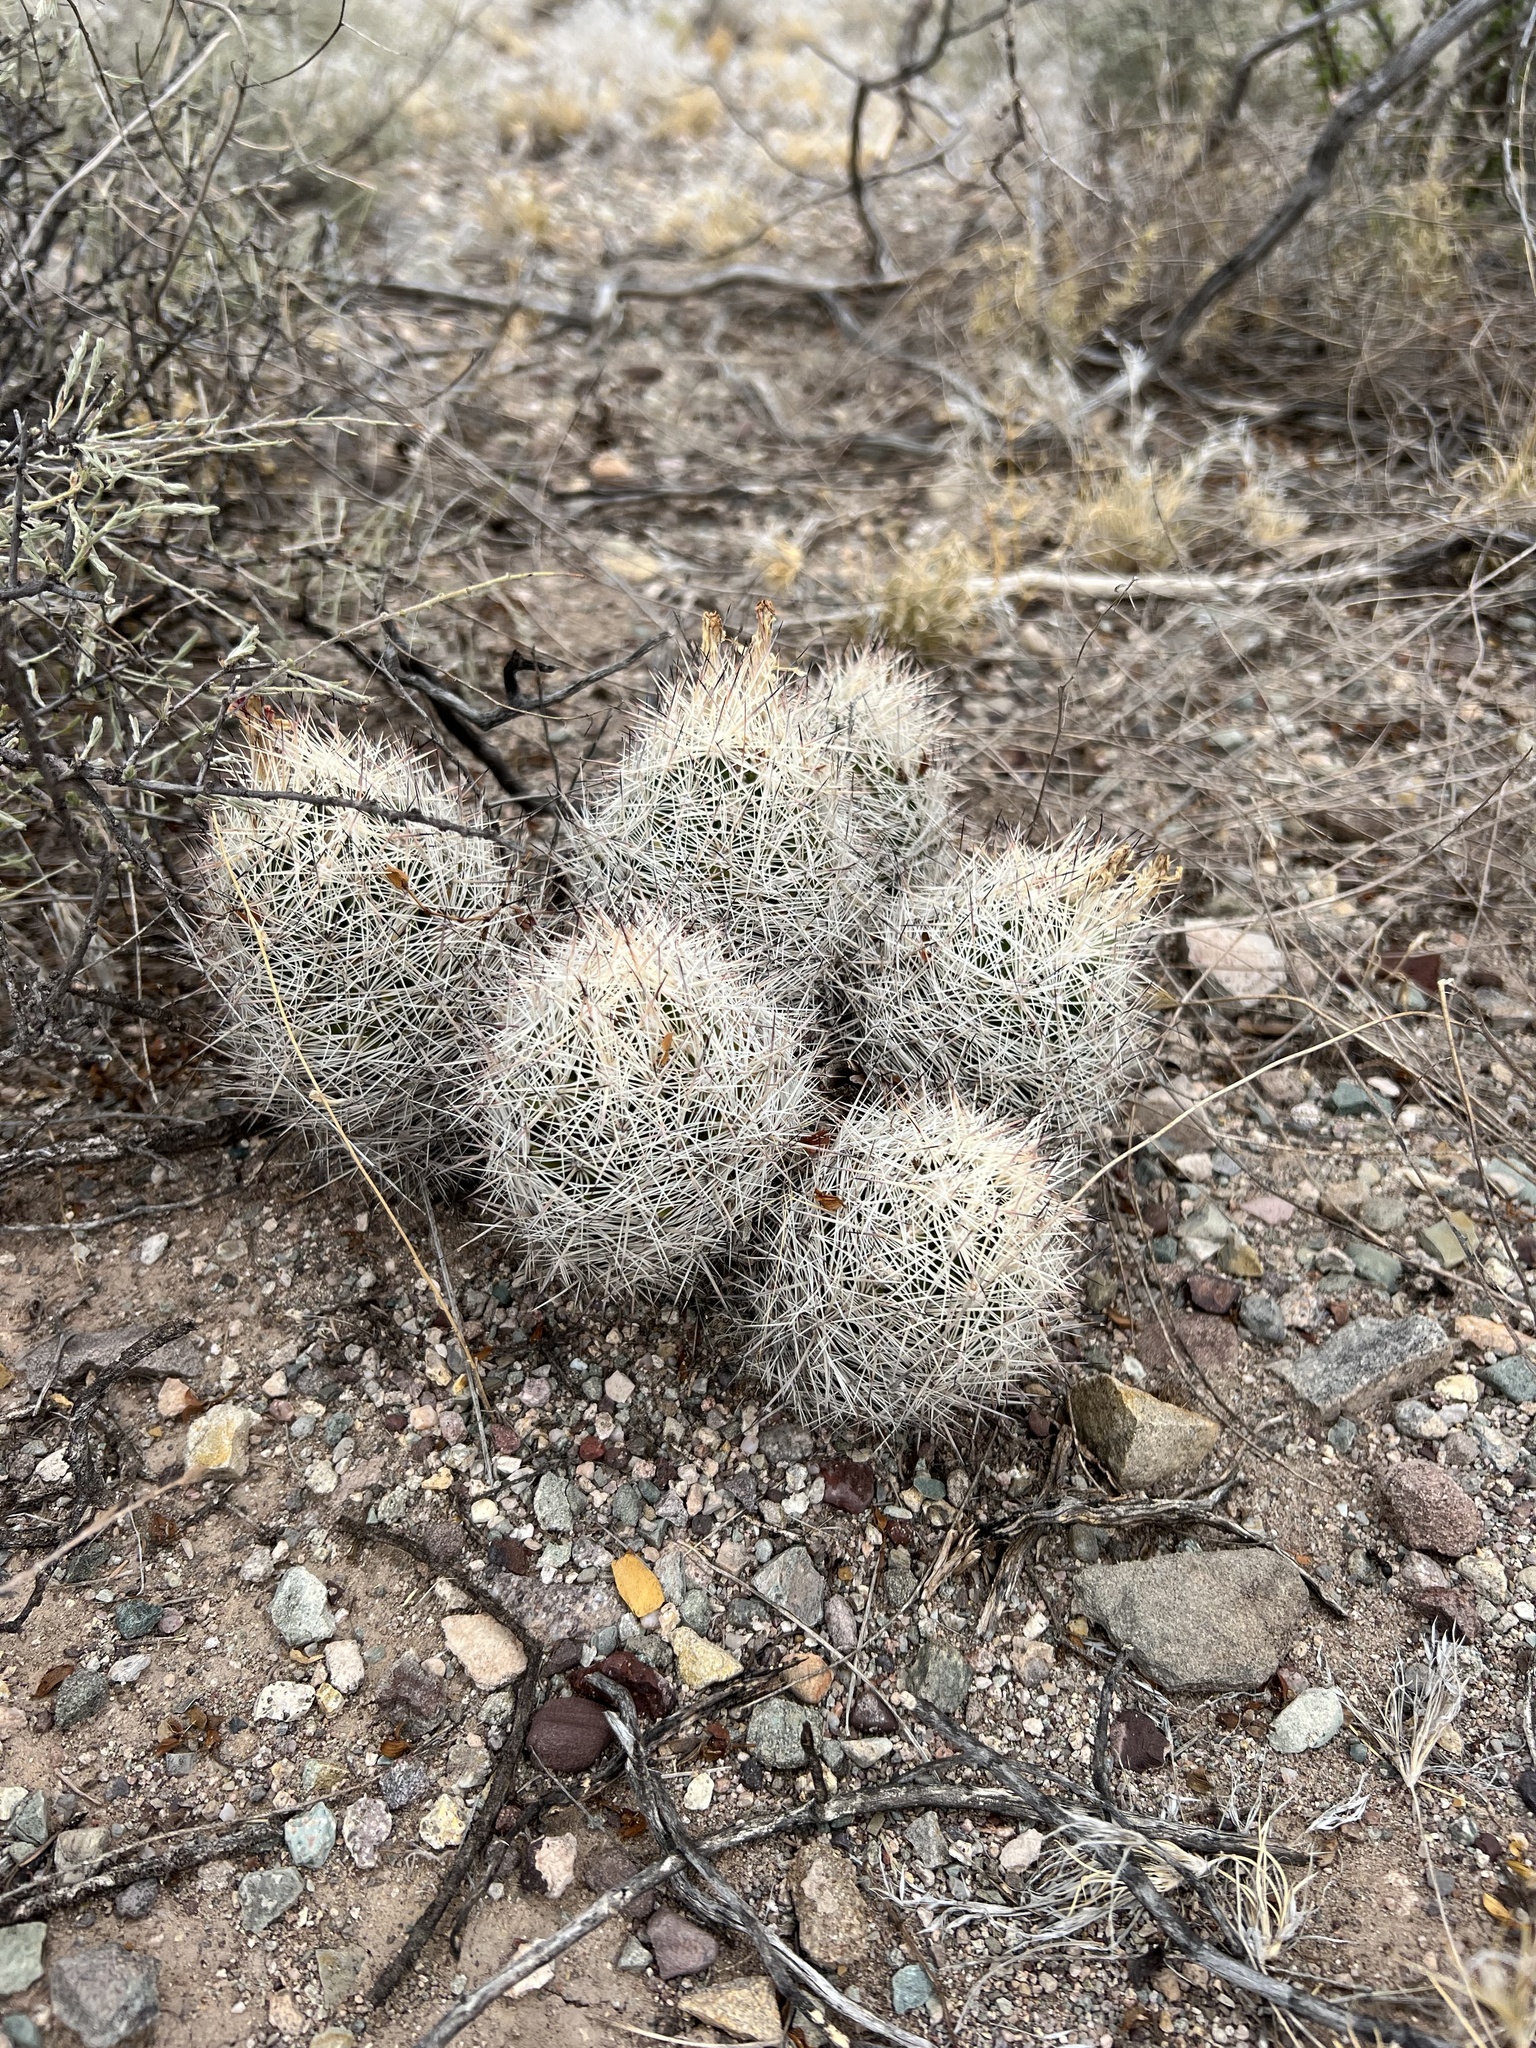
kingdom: Plantae
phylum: Tracheophyta
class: Magnoliopsida
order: Caryophyllales
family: Cactaceae
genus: Pelecyphora
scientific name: Pelecyphora vivipara
